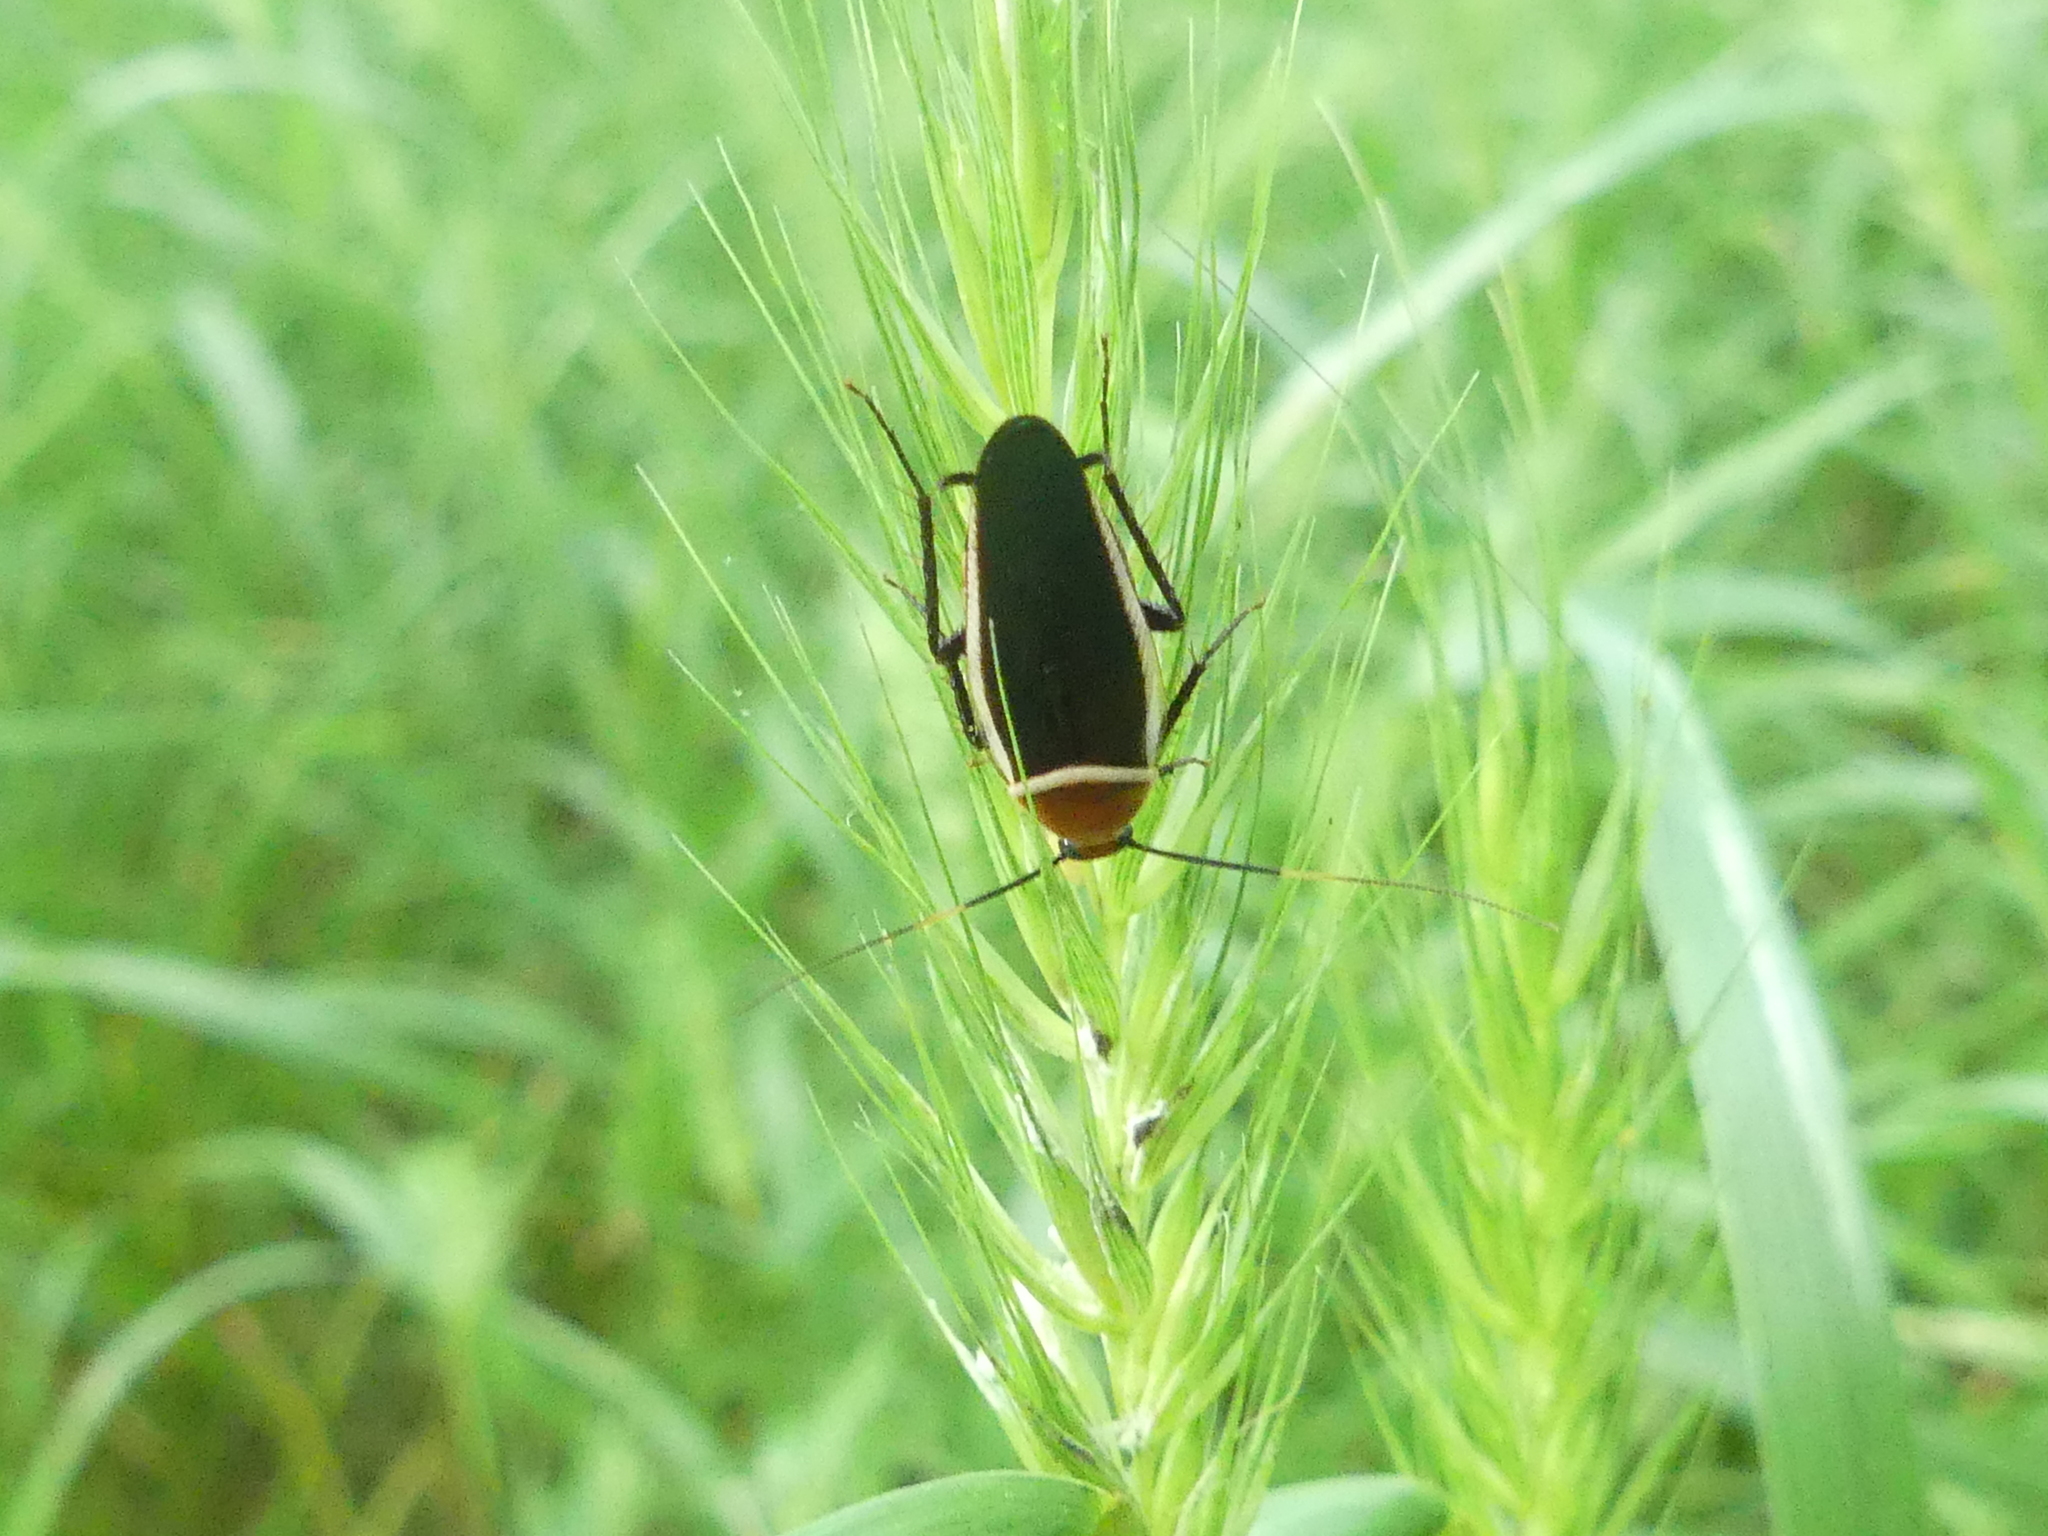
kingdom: Animalia
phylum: Arthropoda
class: Insecta
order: Blattodea
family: Ectobiidae
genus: Pseudomops
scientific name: Pseudomops septentrionalis
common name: Pale-bordered field cockroach
